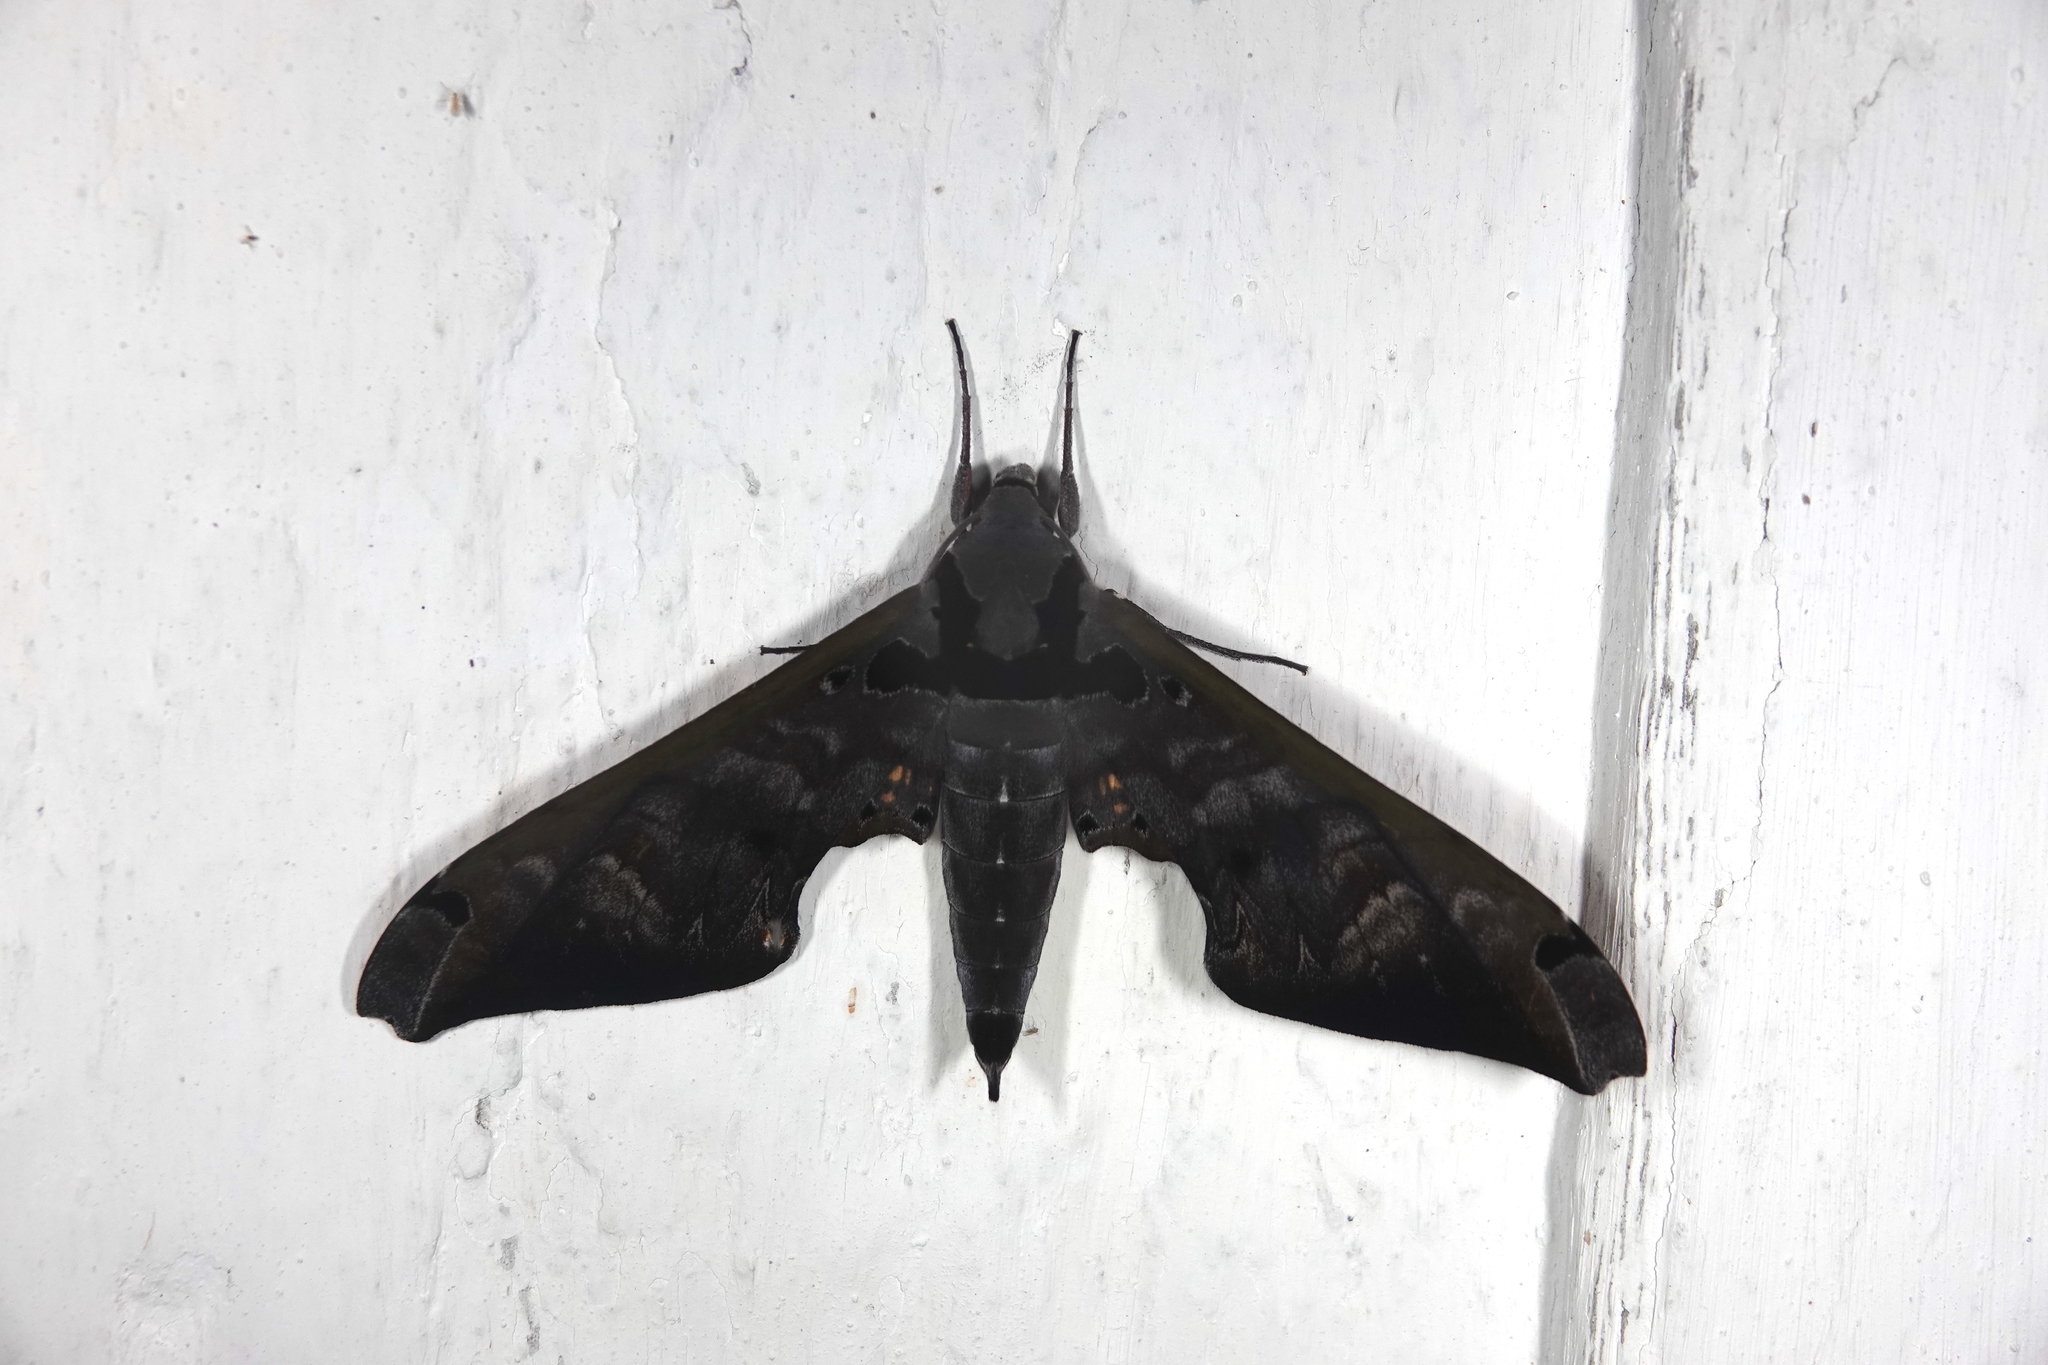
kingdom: Animalia
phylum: Arthropoda
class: Insecta
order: Lepidoptera
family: Sphingidae
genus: Adhemarius
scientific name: Adhemarius sexoculata
